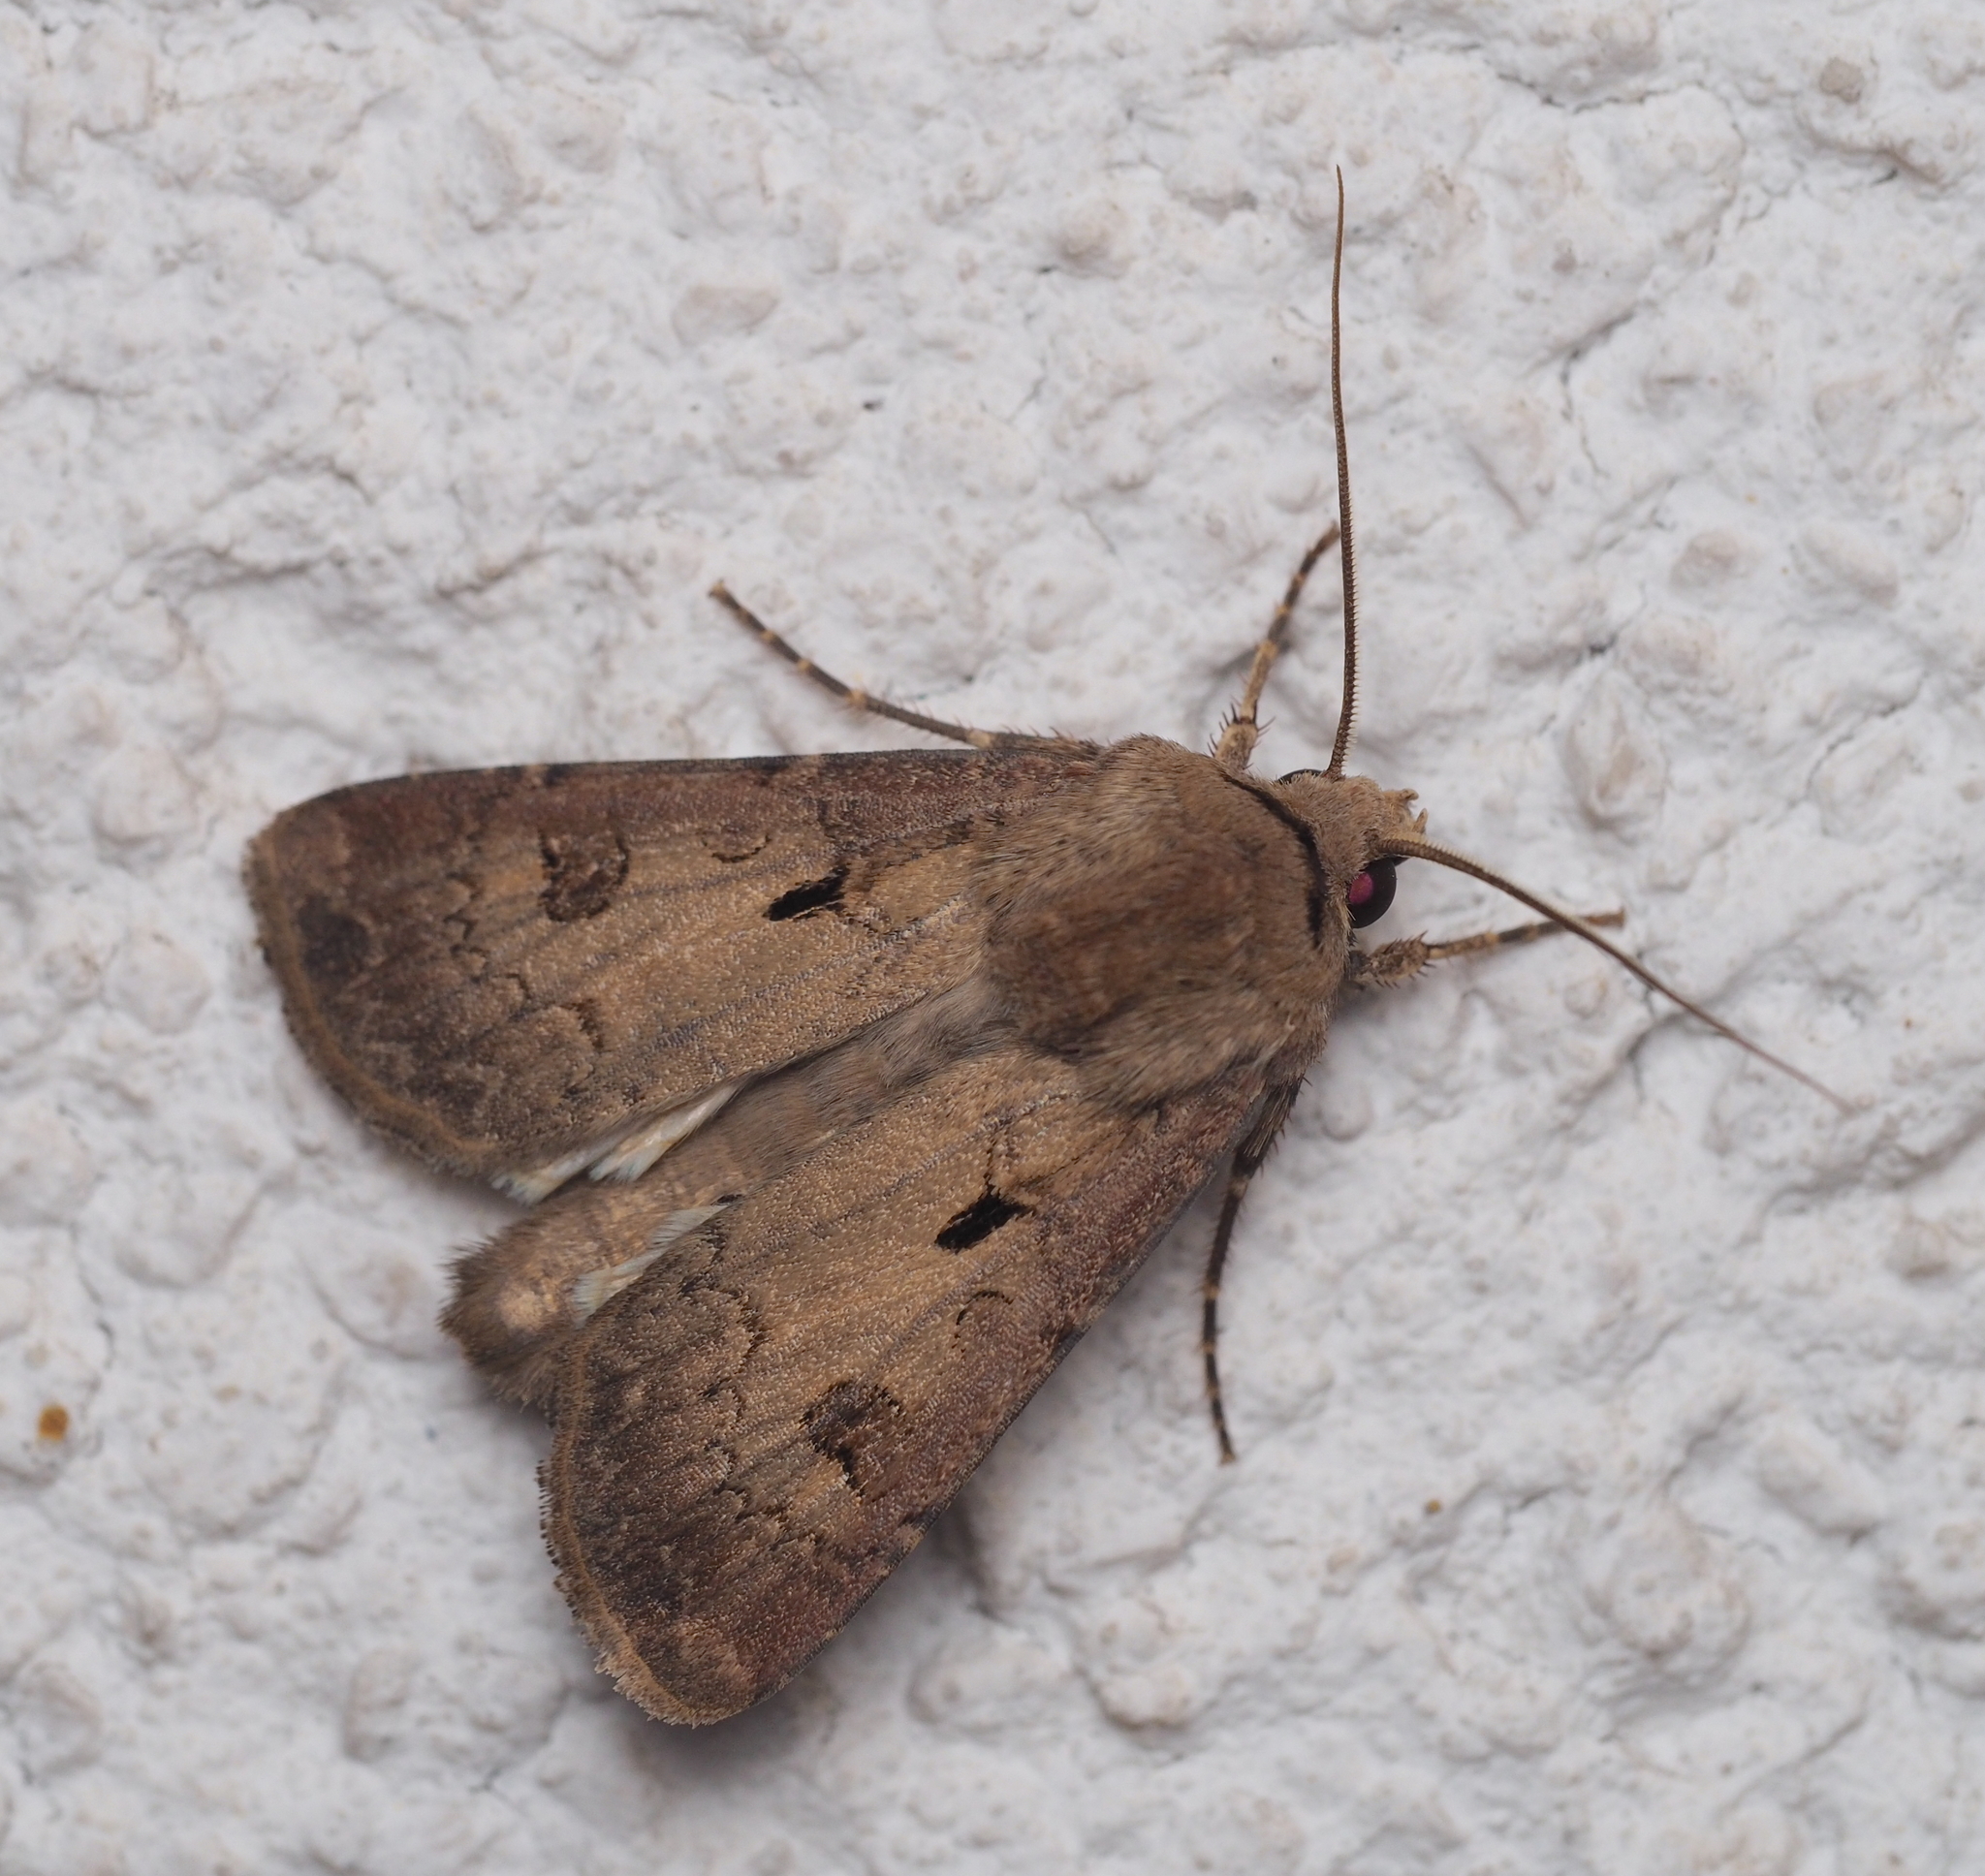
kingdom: Animalia
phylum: Arthropoda
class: Insecta
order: Lepidoptera
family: Noctuidae
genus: Agrotis
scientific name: Agrotis exclamationis
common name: Heart and dart
